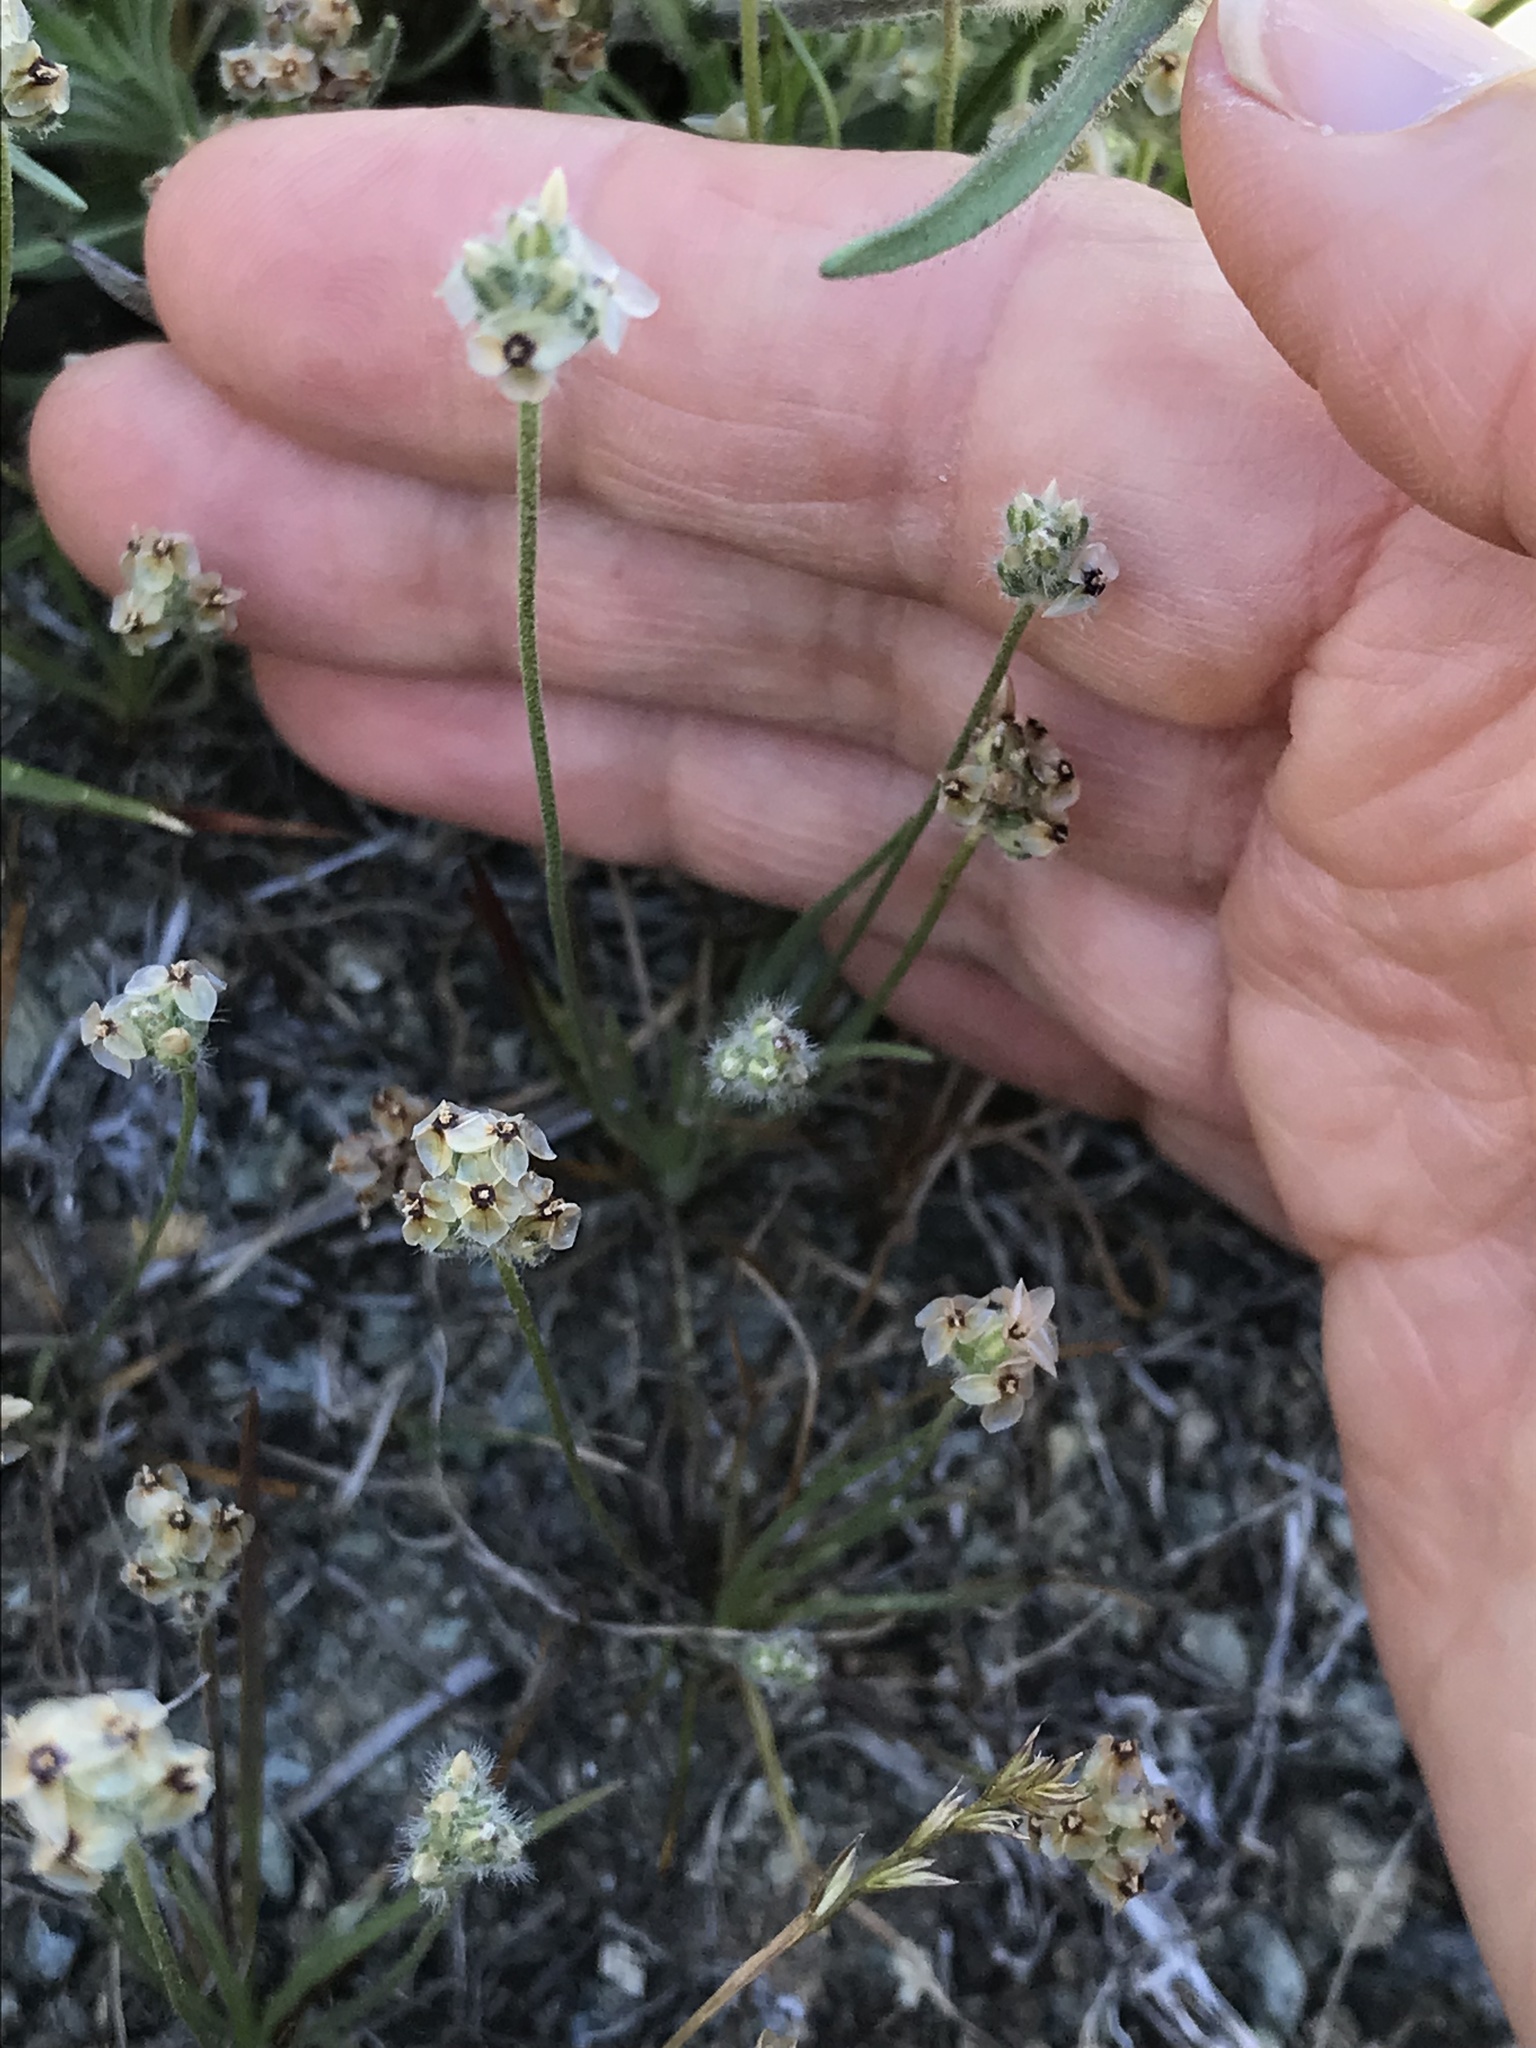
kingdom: Plantae
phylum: Tracheophyta
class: Magnoliopsida
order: Lamiales
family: Plantaginaceae
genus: Plantago
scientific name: Plantago erecta
